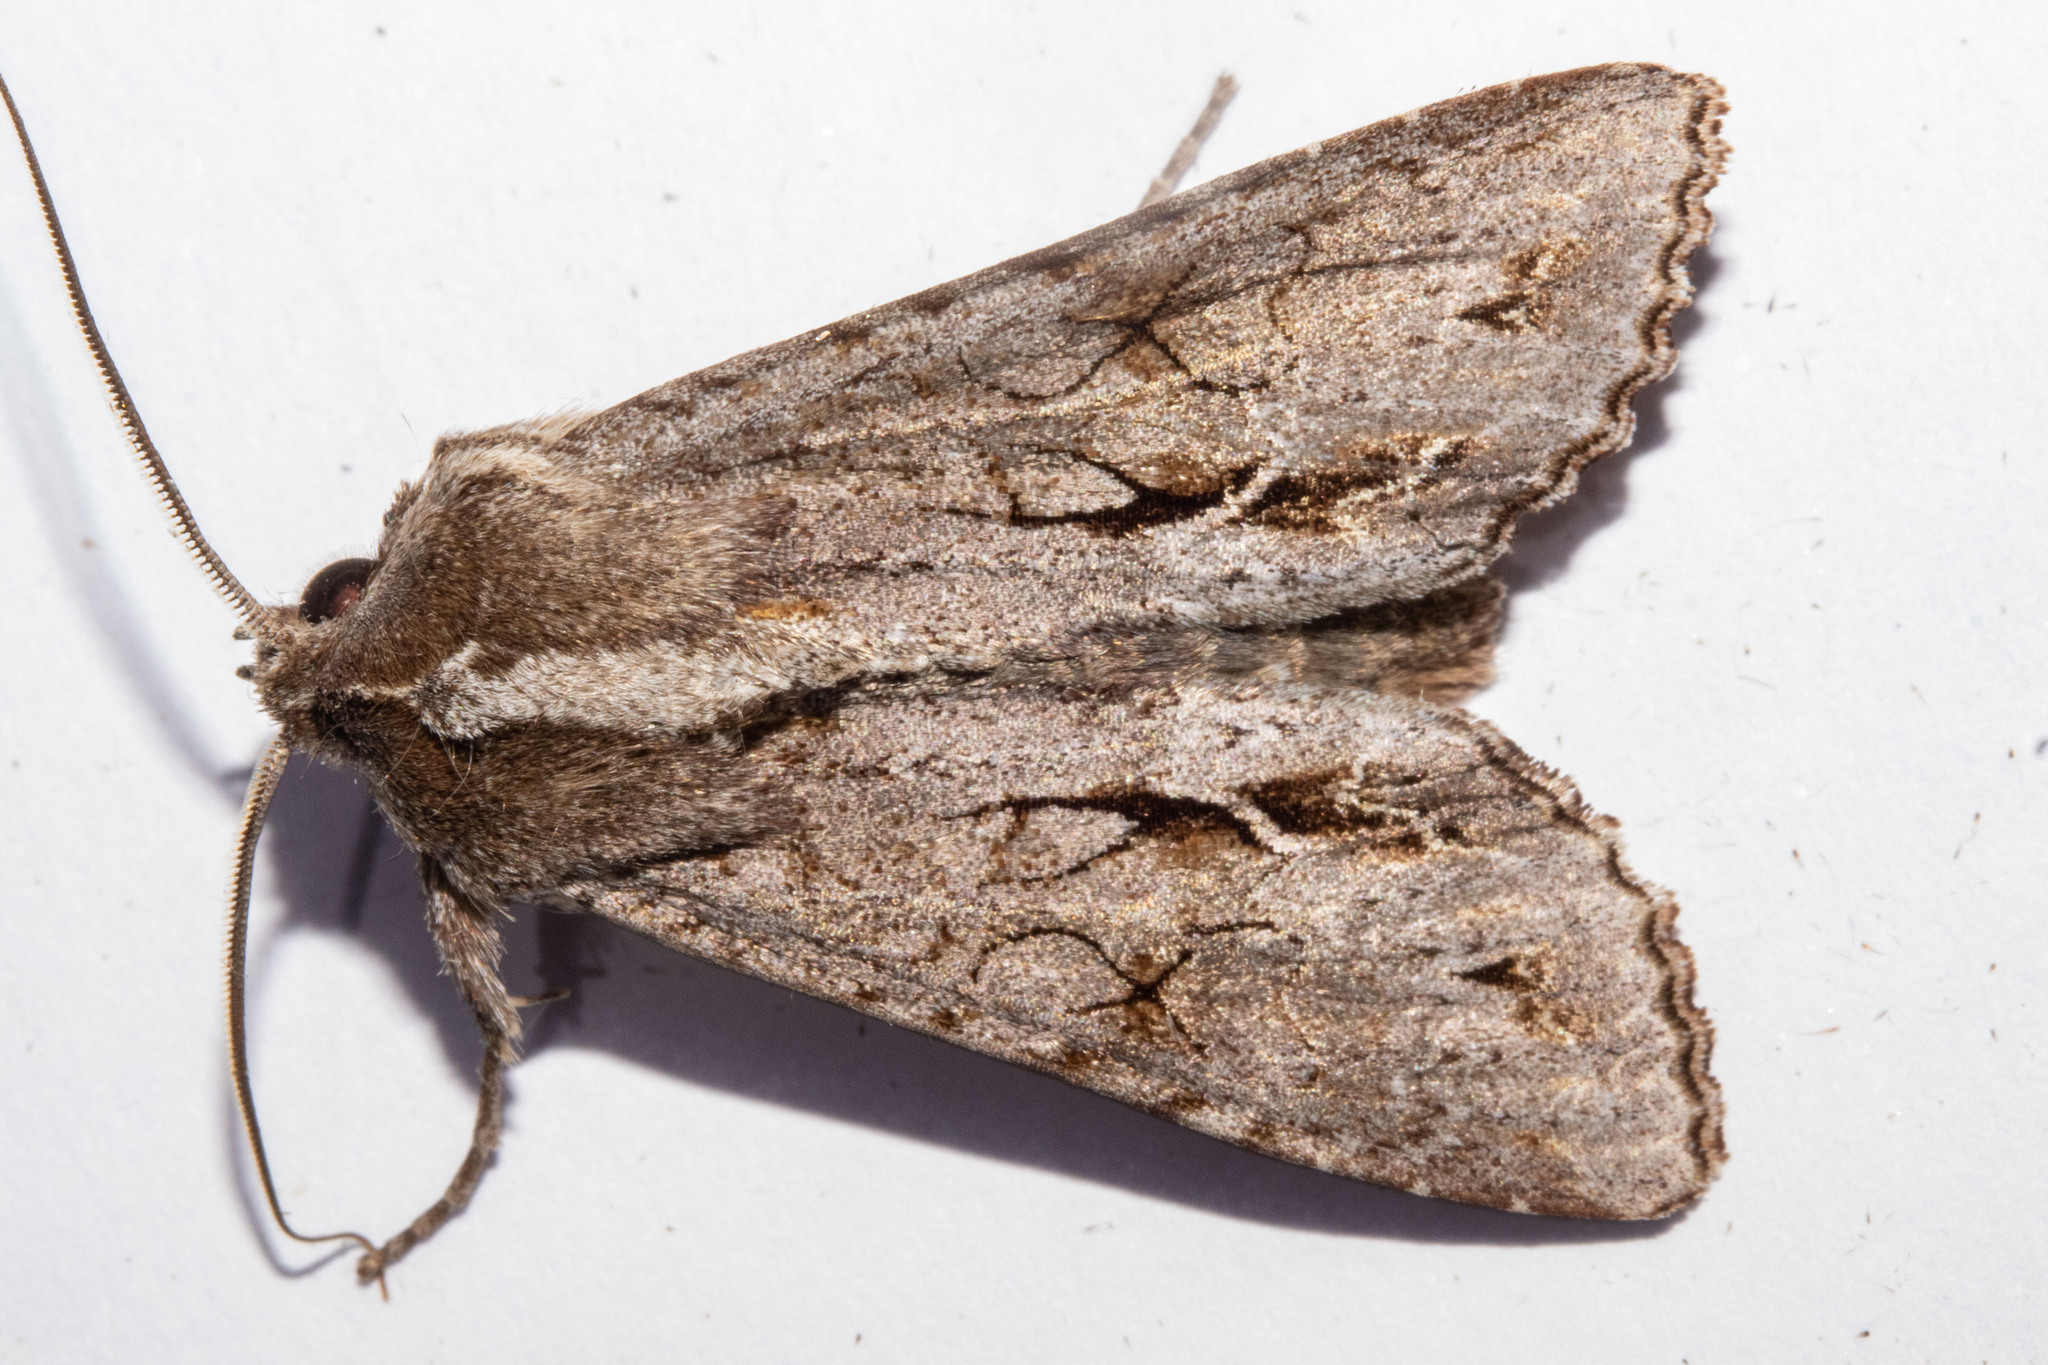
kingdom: Animalia
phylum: Arthropoda
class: Insecta
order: Lepidoptera
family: Noctuidae
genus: Ichneutica
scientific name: Ichneutica
